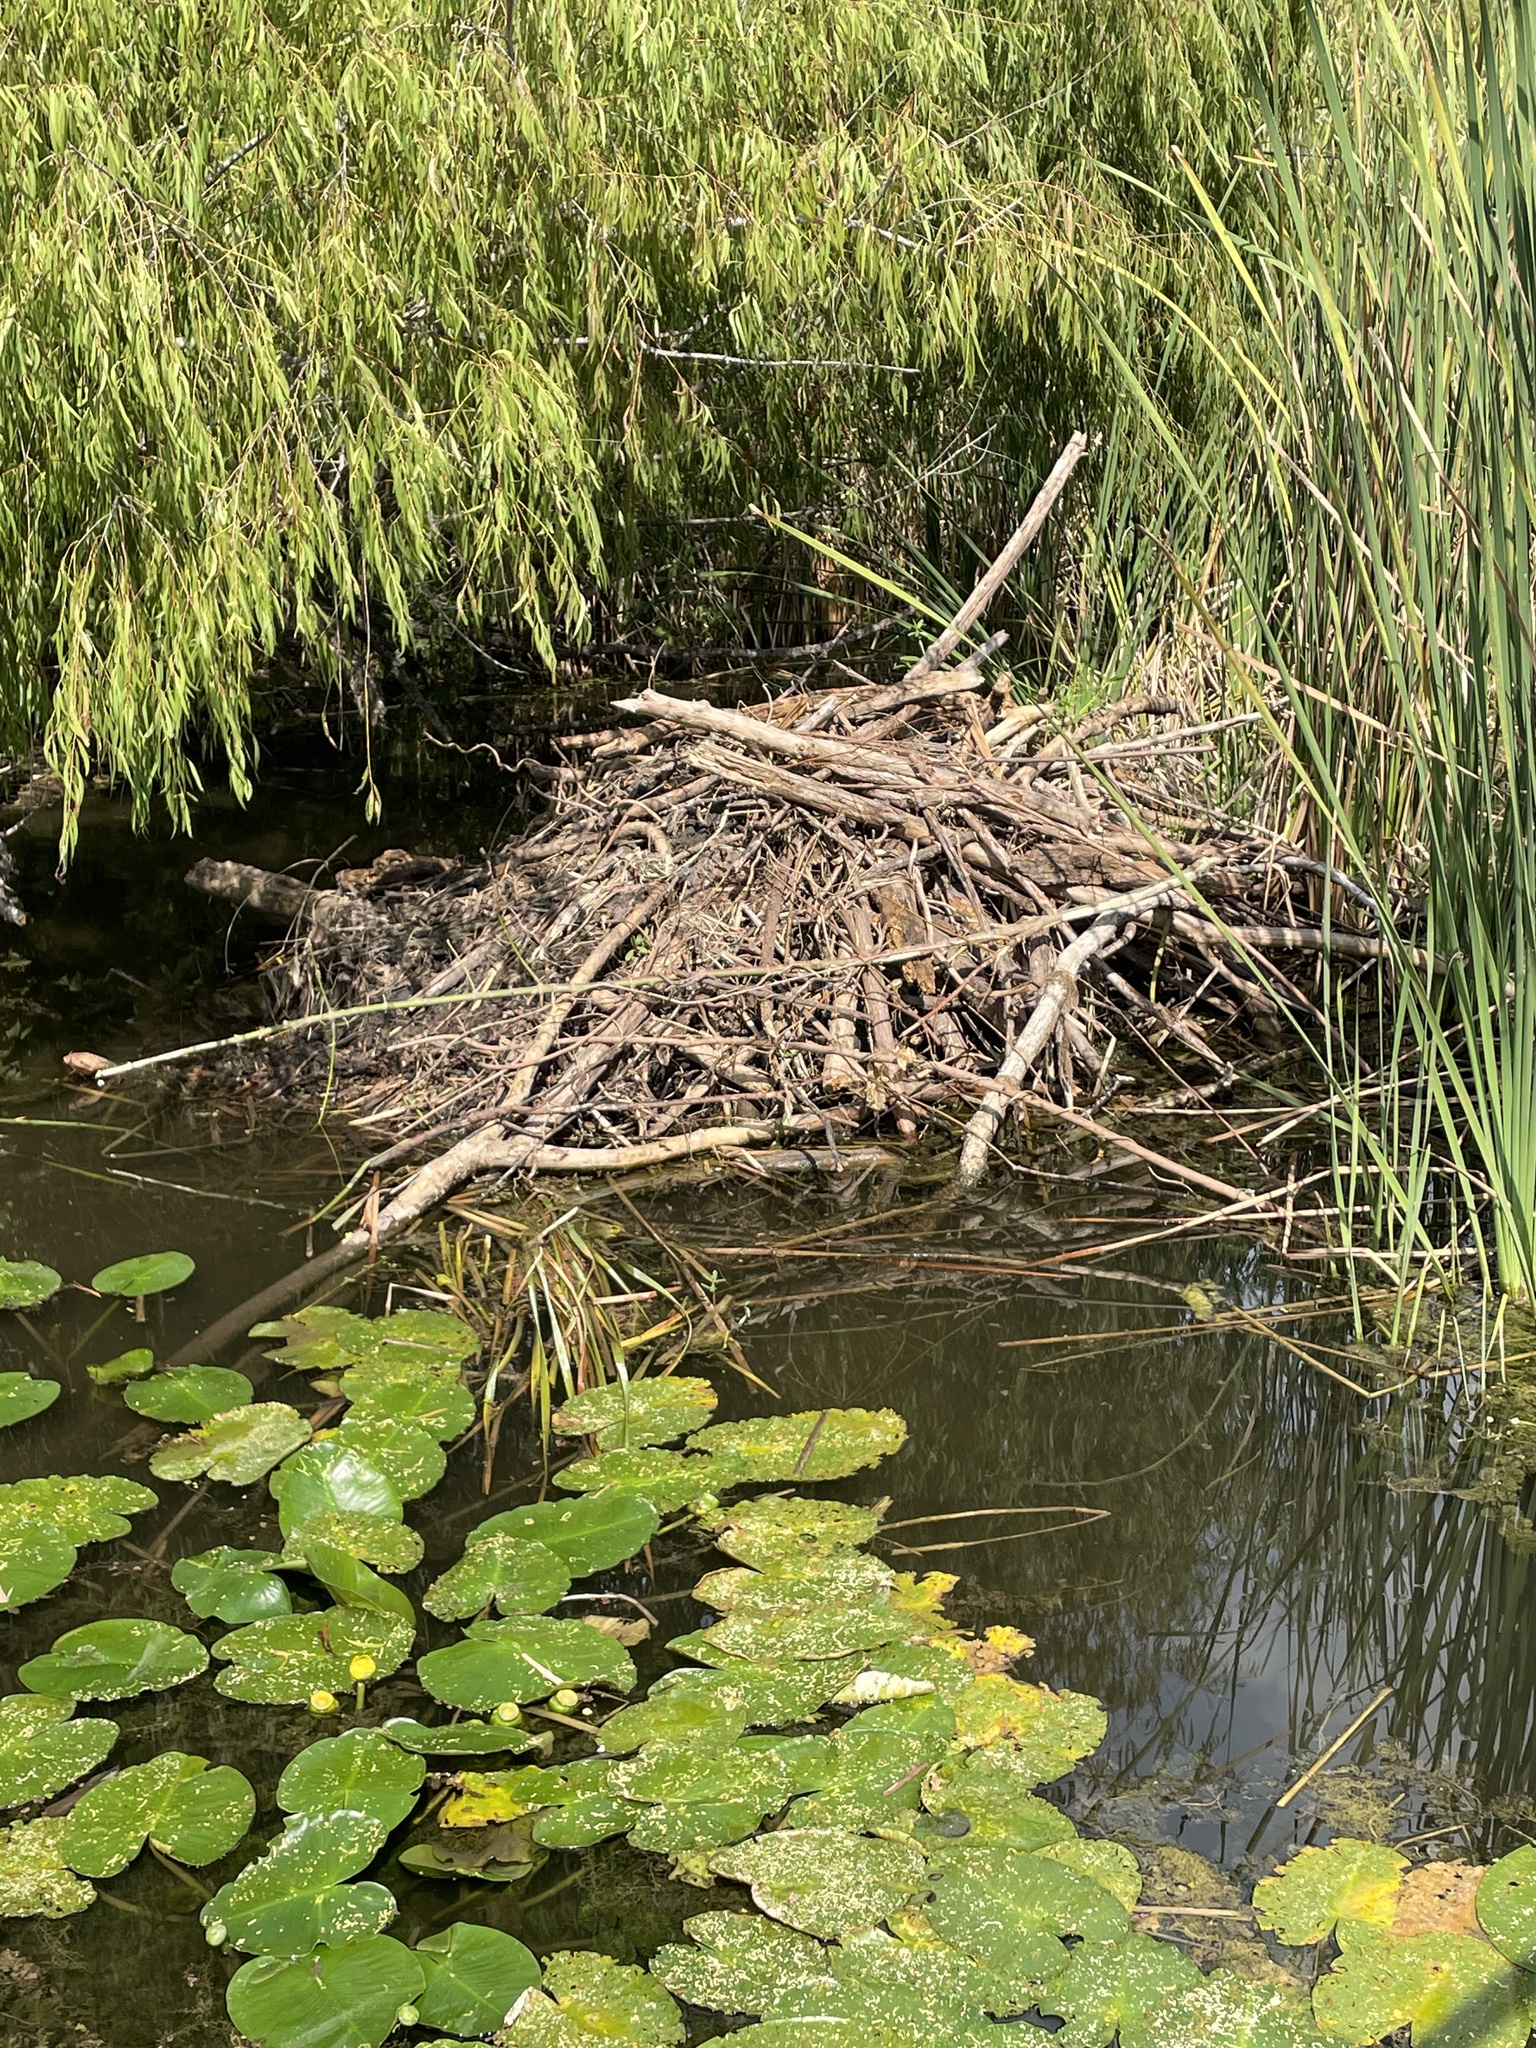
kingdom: Animalia
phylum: Chordata
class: Mammalia
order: Rodentia
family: Castoridae
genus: Castor
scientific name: Castor canadensis
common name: American beaver
